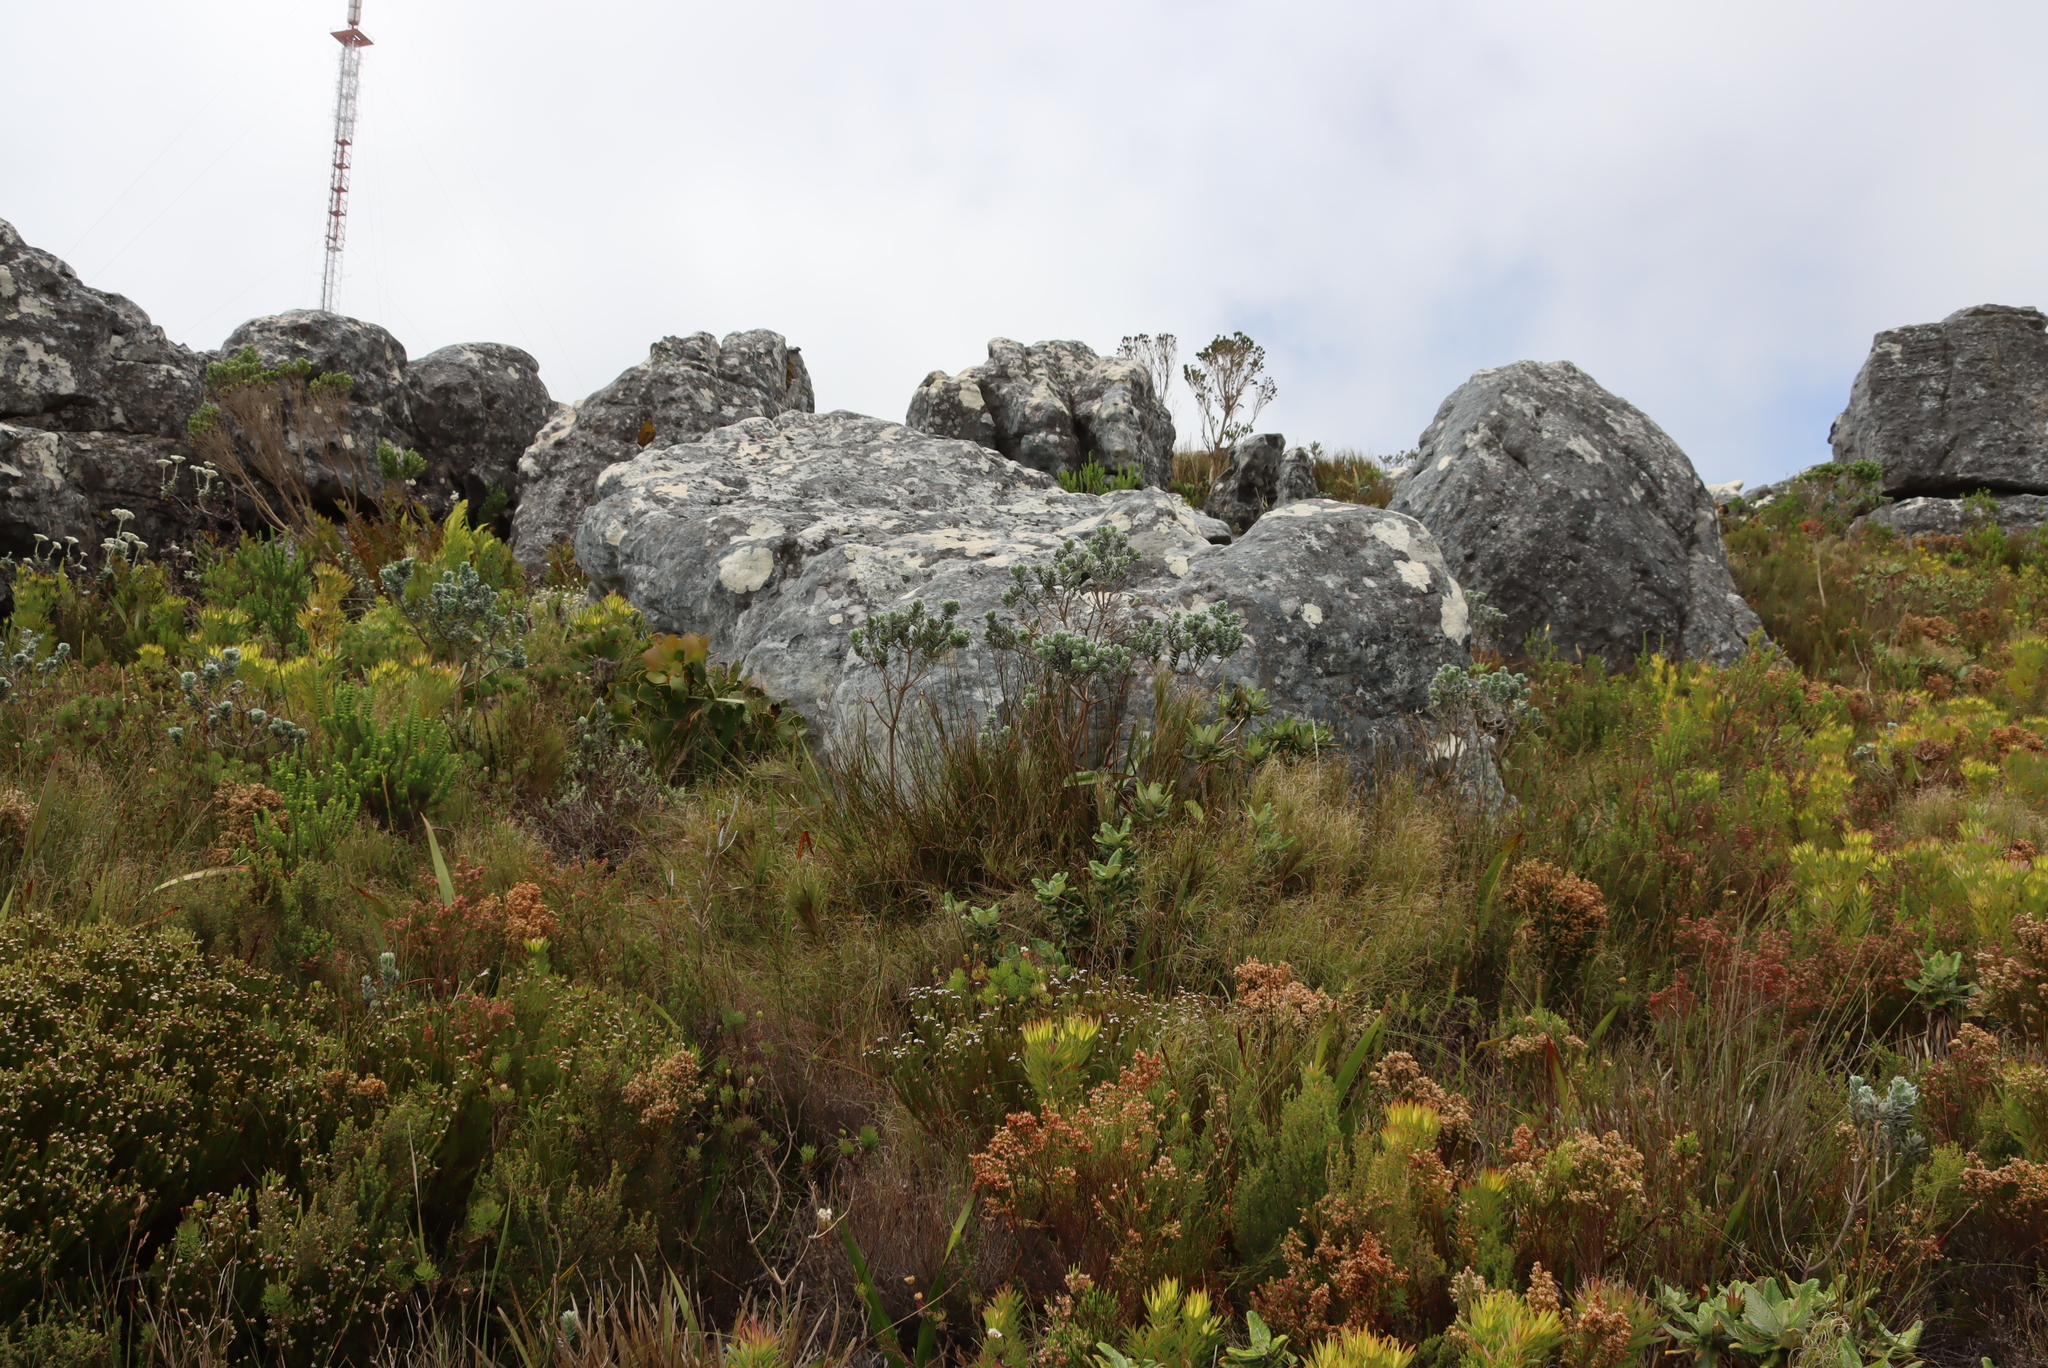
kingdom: Plantae
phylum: Tracheophyta
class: Magnoliopsida
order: Fabales
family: Fabaceae
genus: Xiphotheca
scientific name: Xiphotheca fruticosa
